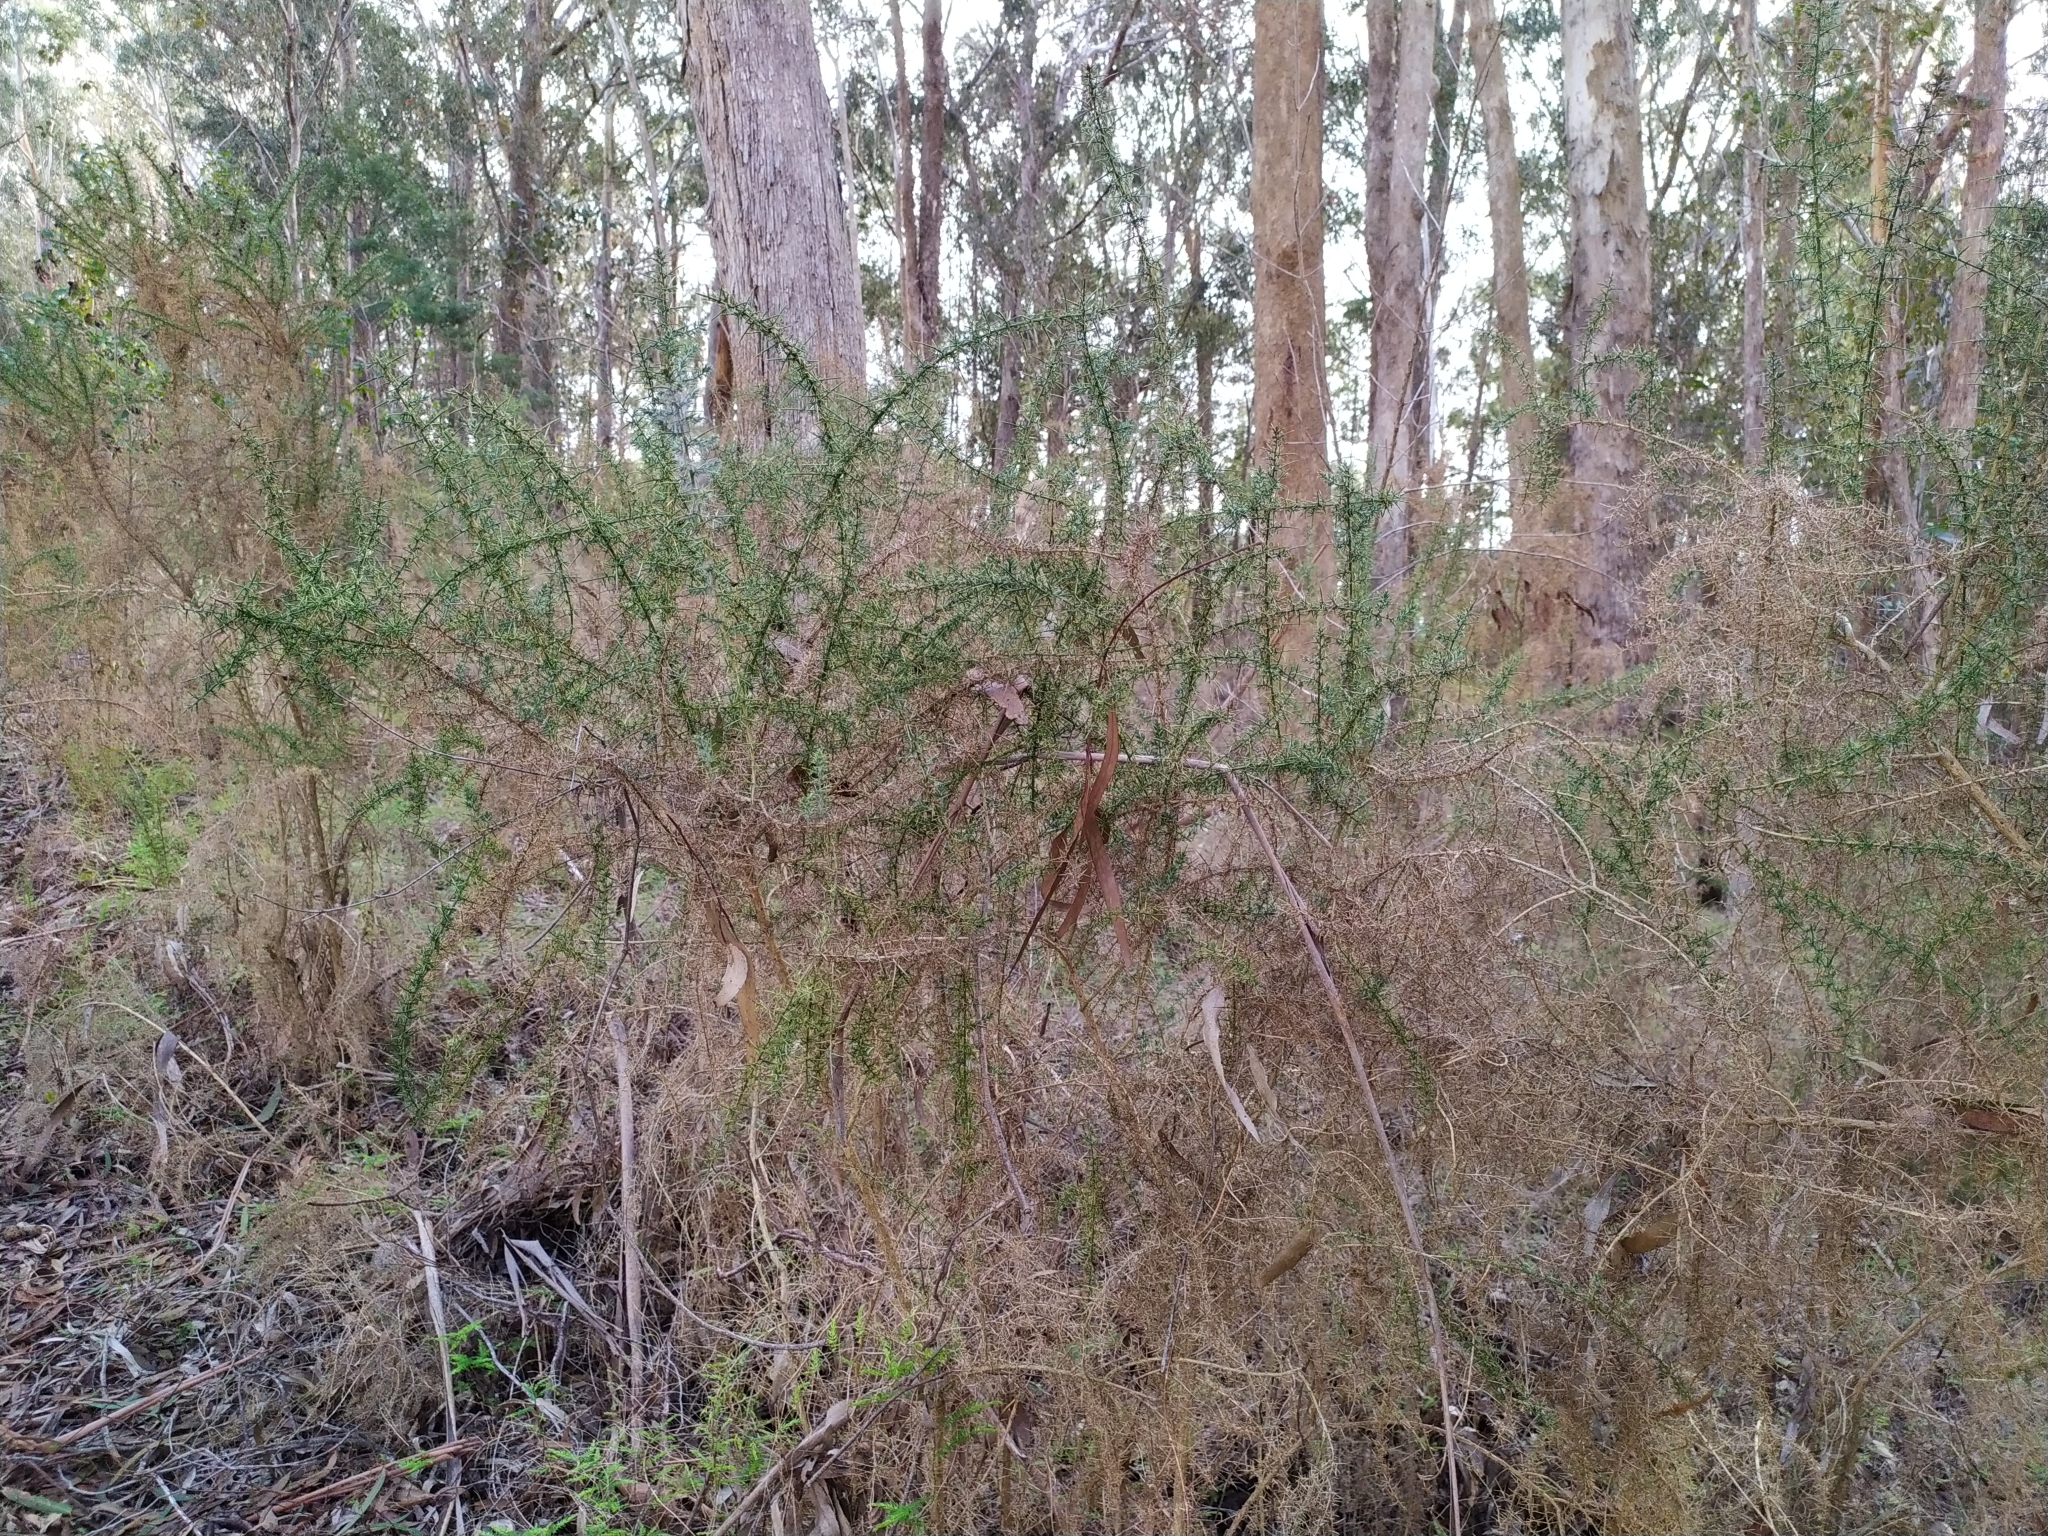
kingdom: Plantae
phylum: Tracheophyta
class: Magnoliopsida
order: Fabales
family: Fabaceae
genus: Ulex
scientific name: Ulex europaeus
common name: Common gorse
